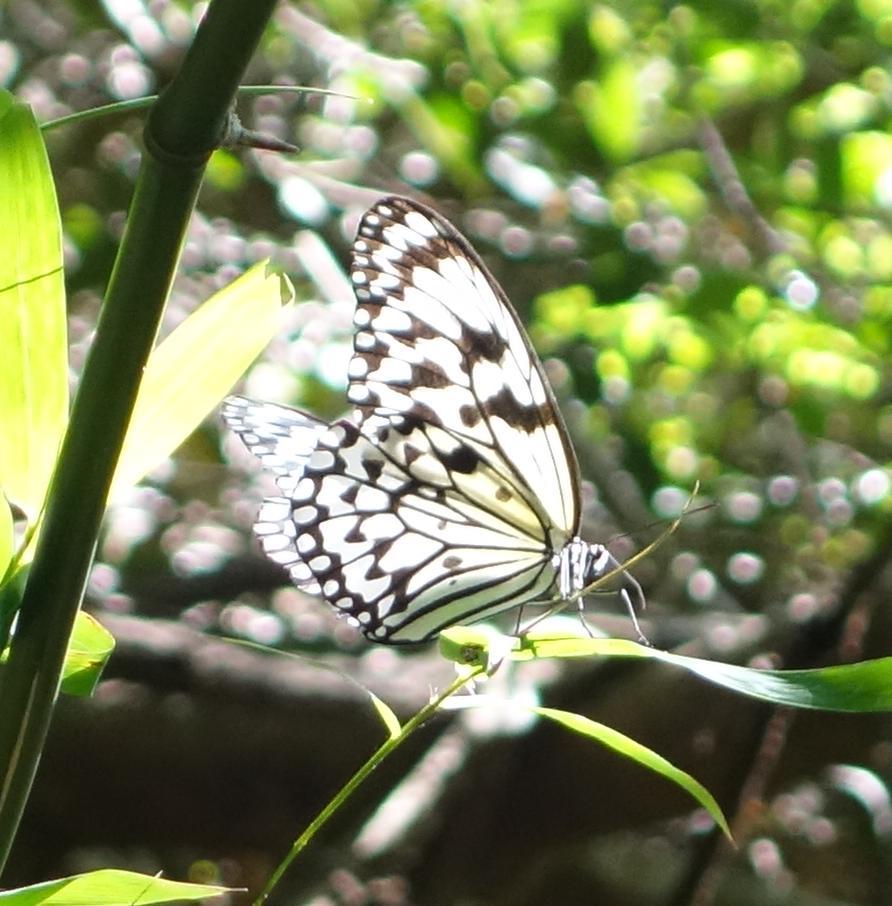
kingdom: Animalia
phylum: Arthropoda
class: Insecta
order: Lepidoptera
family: Nymphalidae
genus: Idea
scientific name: Idea leuconoe
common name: Rice paper butterfly
